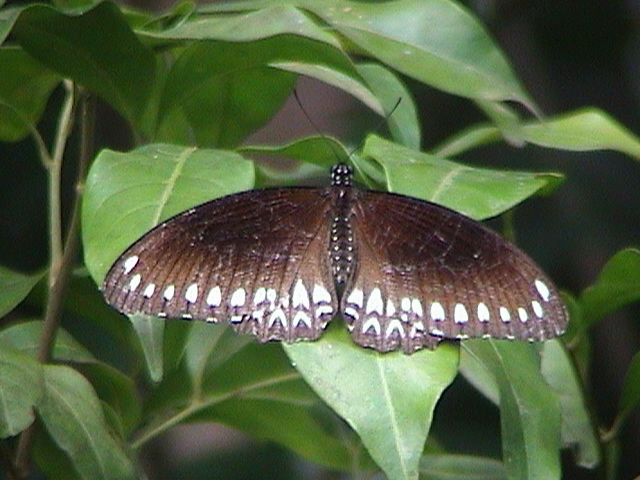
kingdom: Animalia
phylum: Arthropoda
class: Insecta
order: Lepidoptera
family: Nymphalidae
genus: Mycalesis
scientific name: Mycalesis patnia
